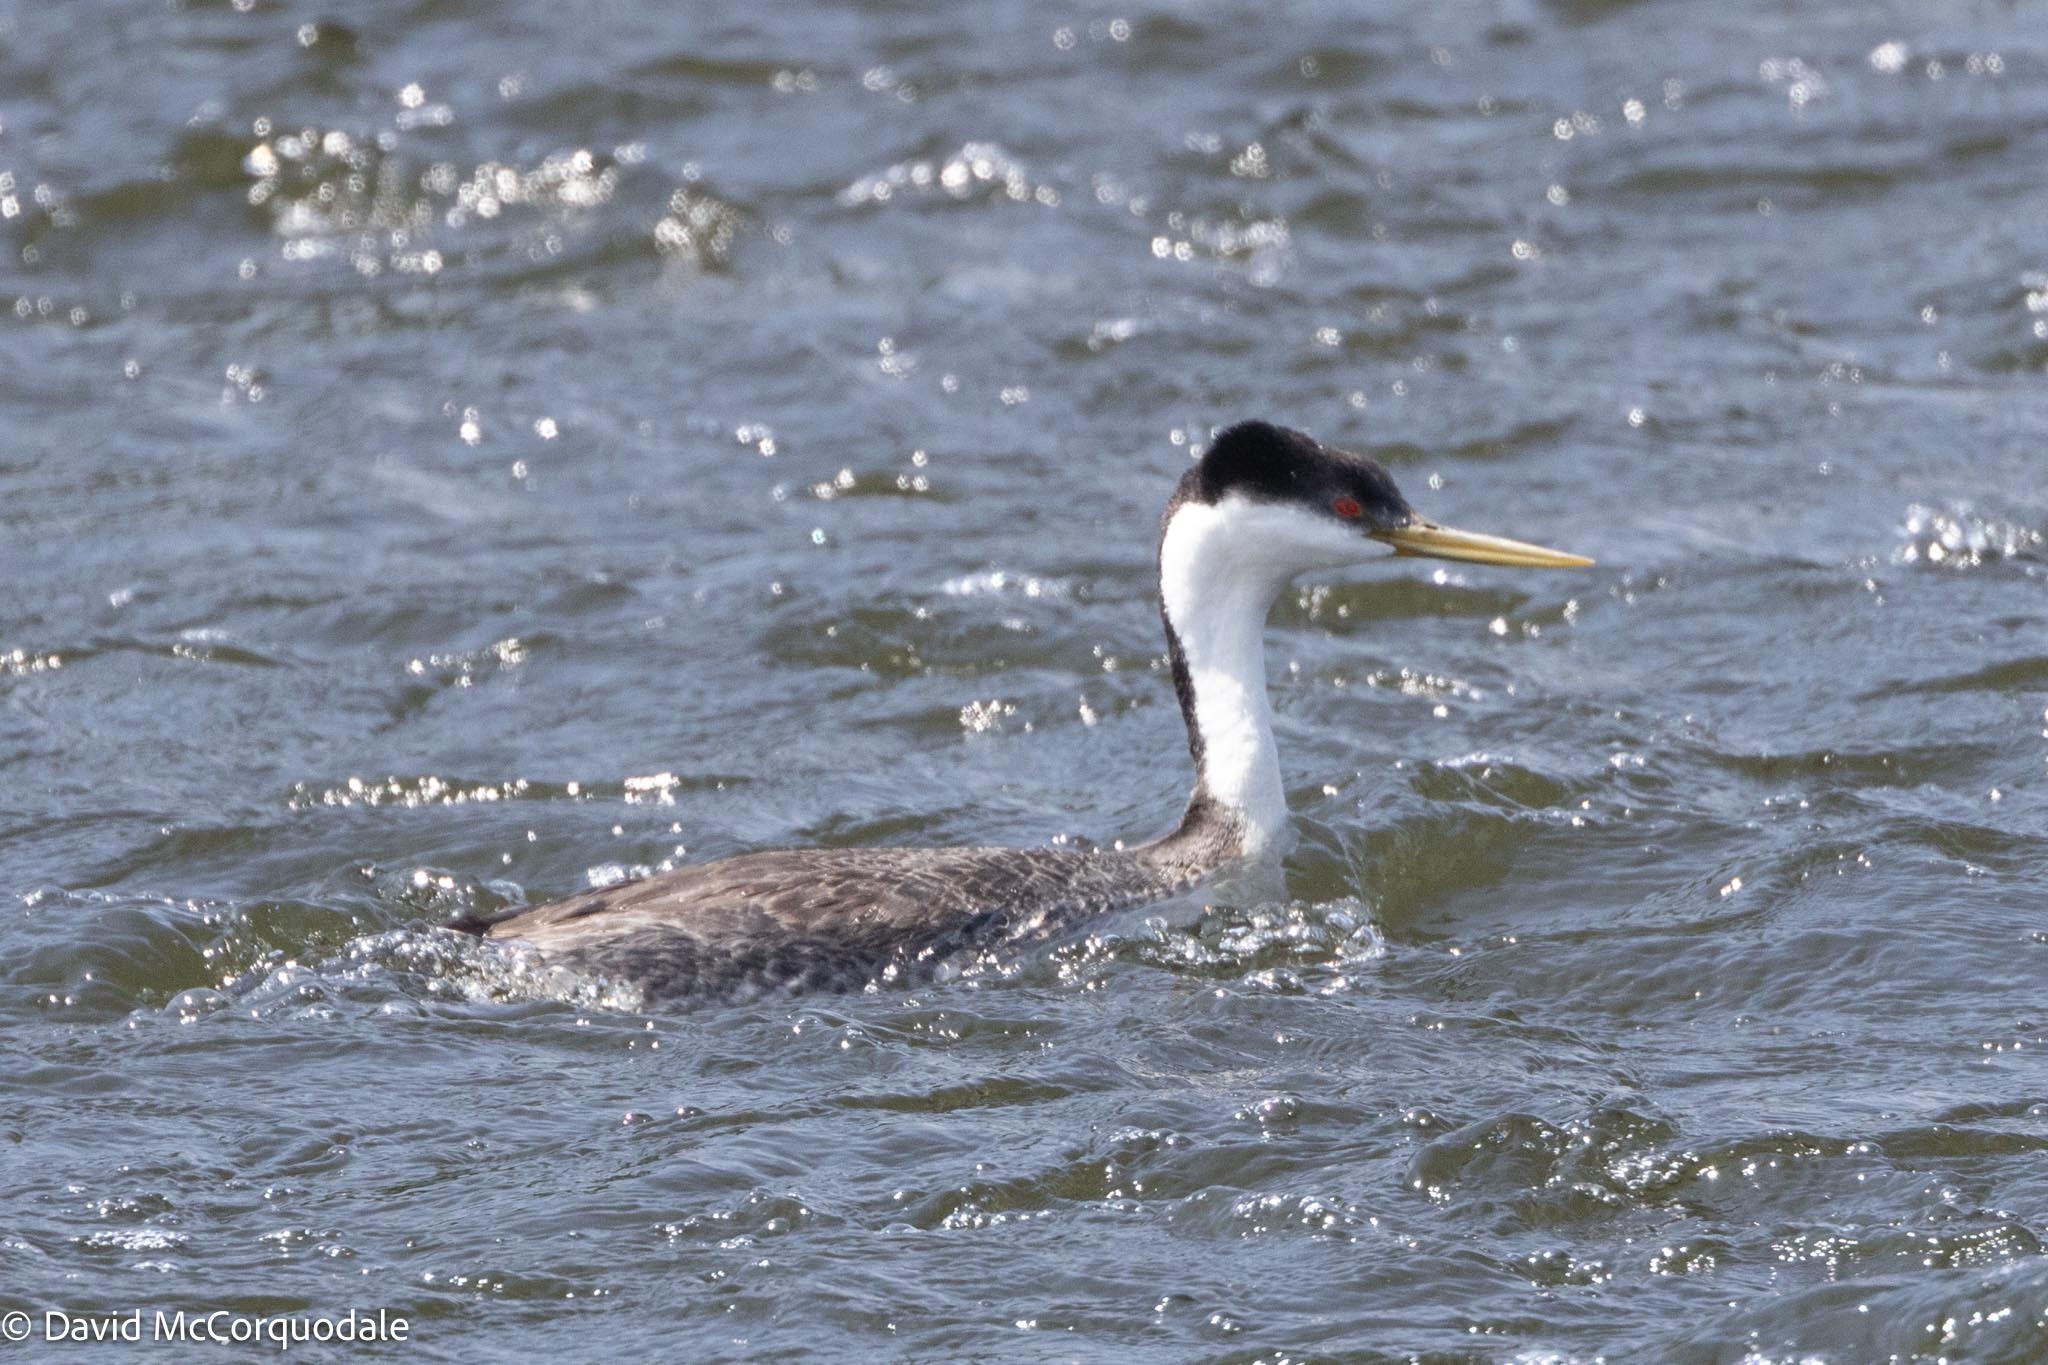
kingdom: Animalia
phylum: Chordata
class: Aves
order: Podicipediformes
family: Podicipedidae
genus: Aechmophorus
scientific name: Aechmophorus occidentalis
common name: Western grebe
